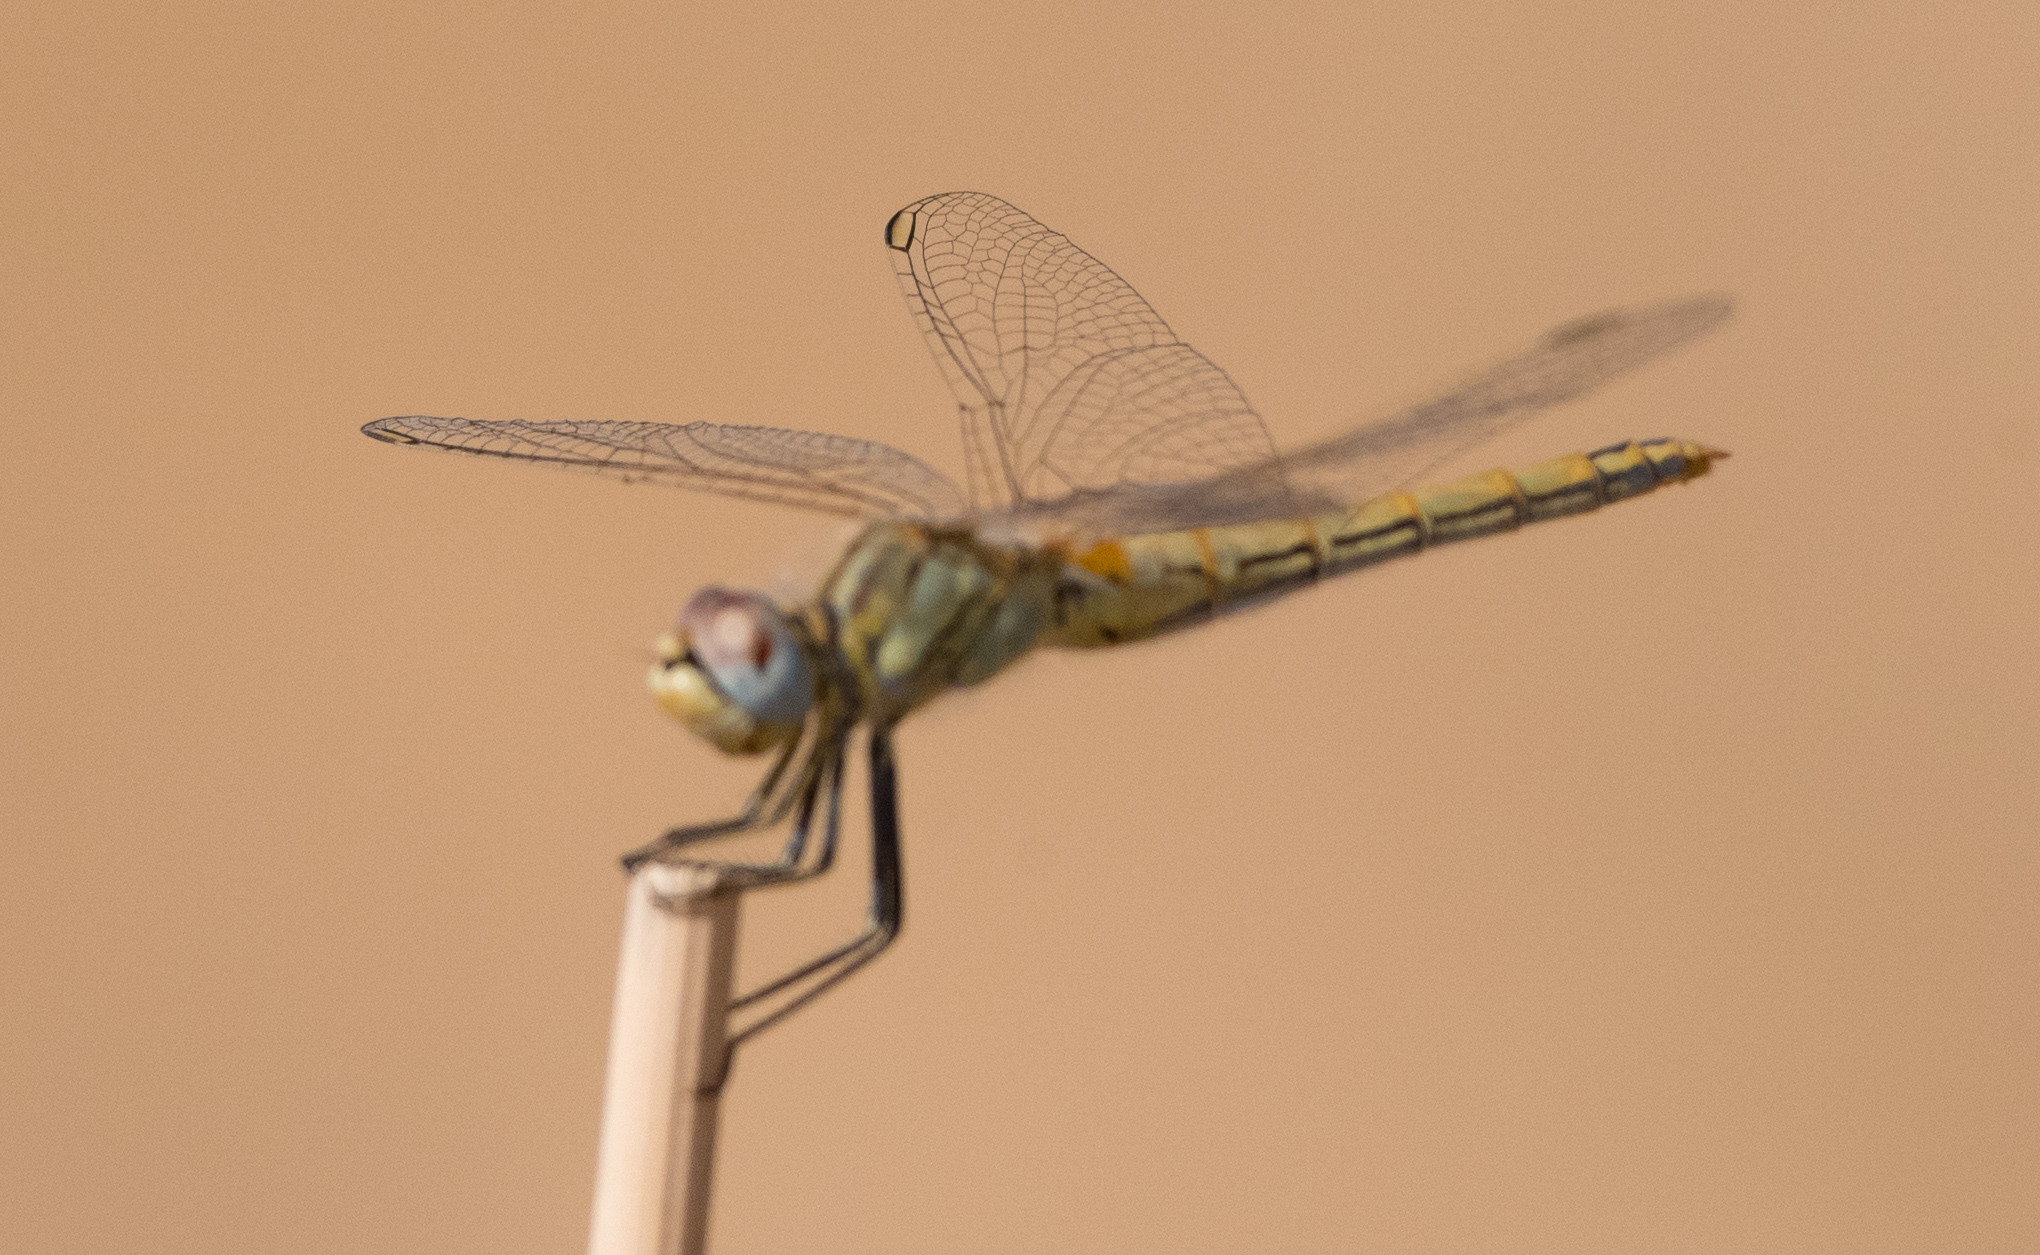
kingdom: Animalia
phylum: Arthropoda
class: Insecta
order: Odonata
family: Libellulidae
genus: Sympetrum
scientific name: Sympetrum fonscolombii
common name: Red-veined darter
